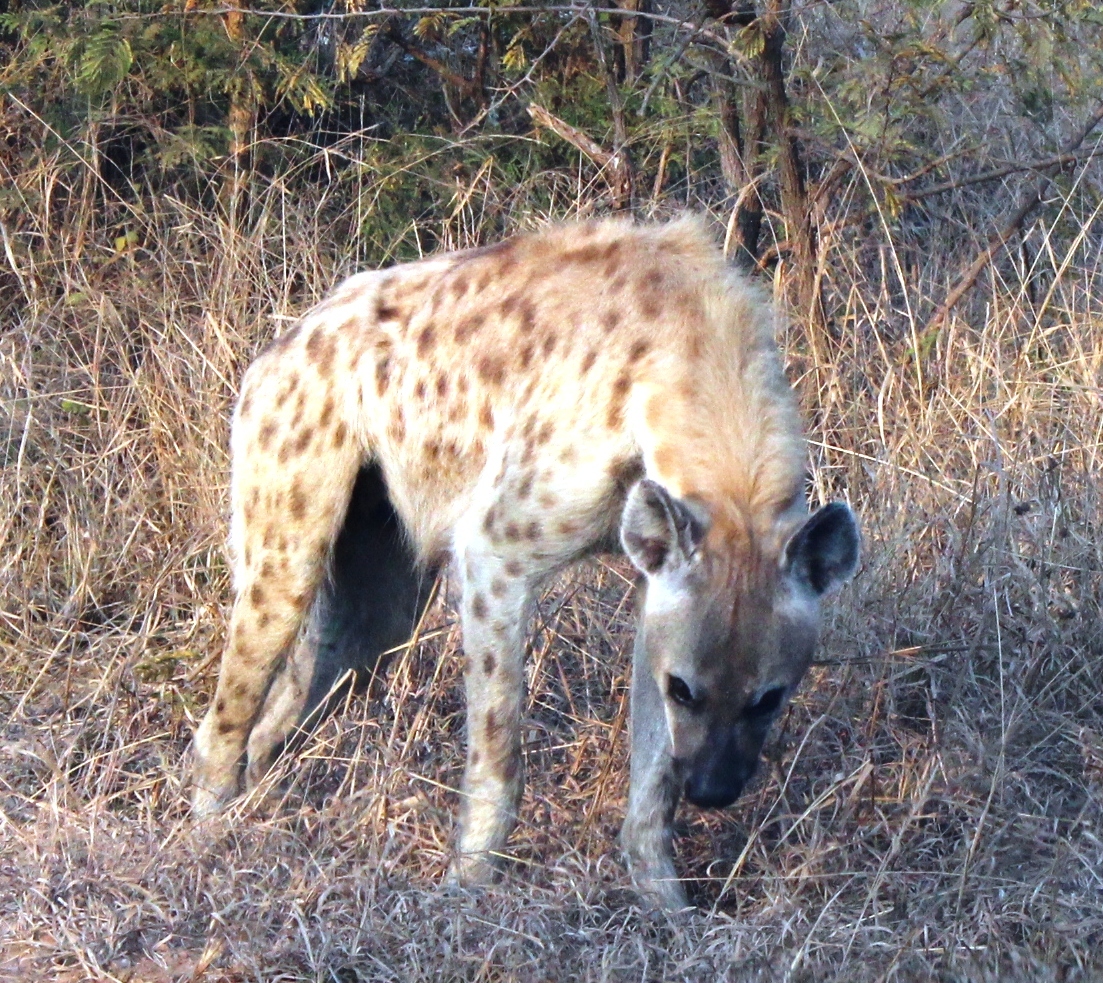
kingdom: Animalia
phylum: Chordata
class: Mammalia
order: Carnivora
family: Hyaenidae
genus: Crocuta
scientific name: Crocuta crocuta
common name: Spotted hyaena
